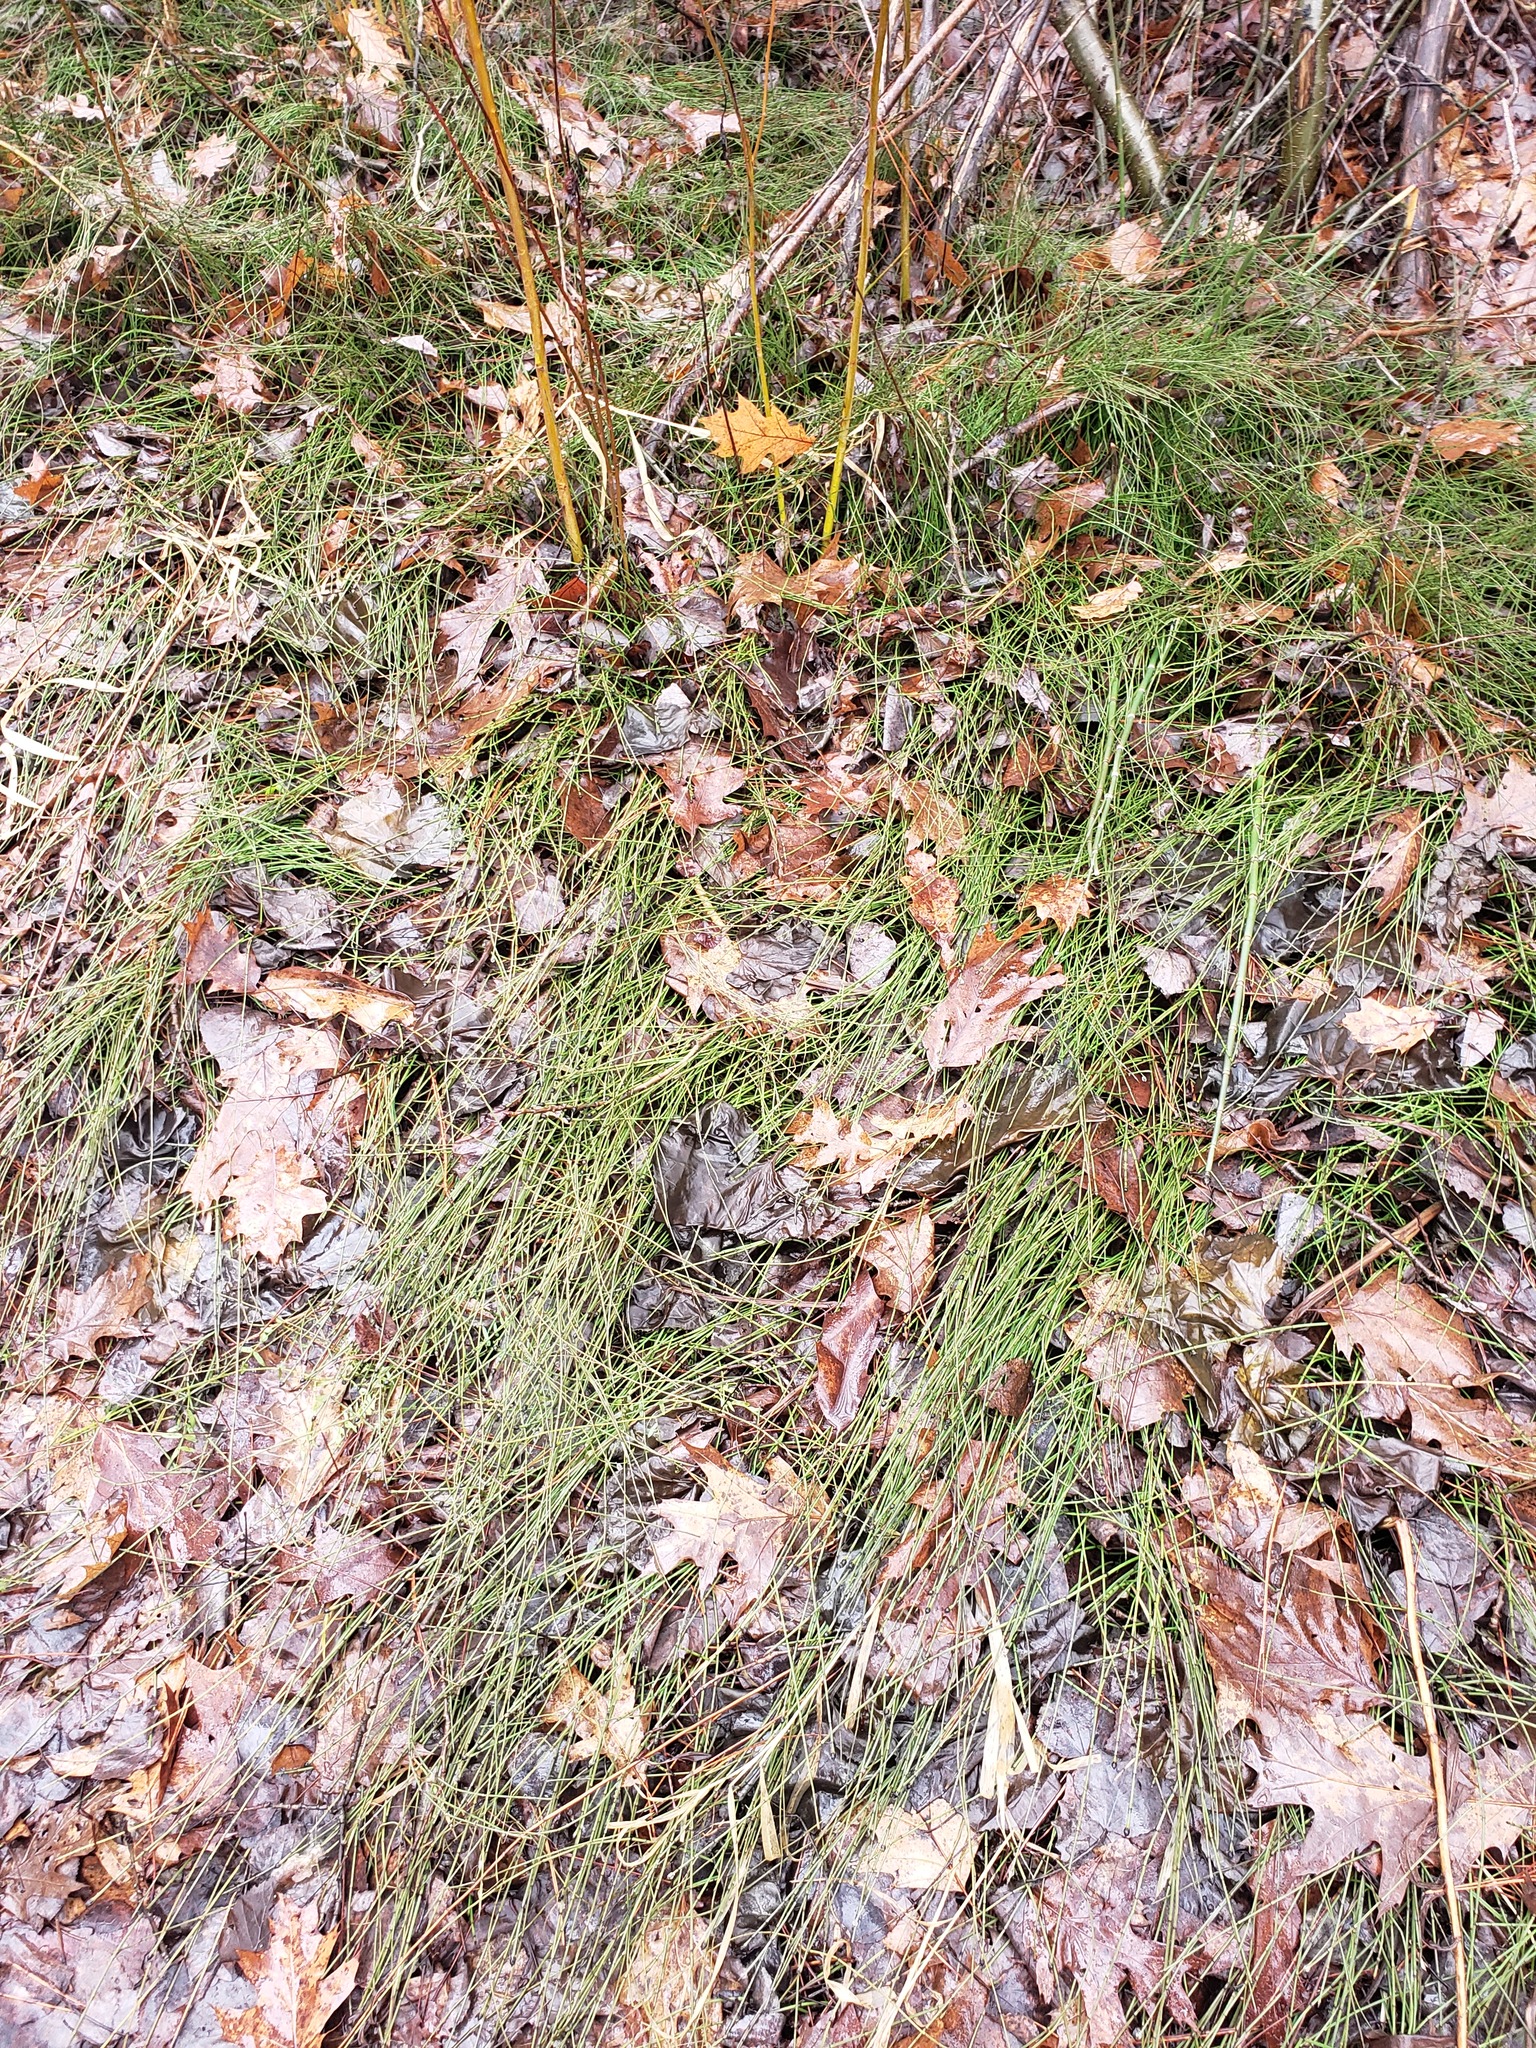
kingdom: Plantae
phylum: Tracheophyta
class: Polypodiopsida
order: Equisetales
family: Equisetaceae
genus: Equisetum
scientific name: Equisetum variegatum
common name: Variegated horsetail
